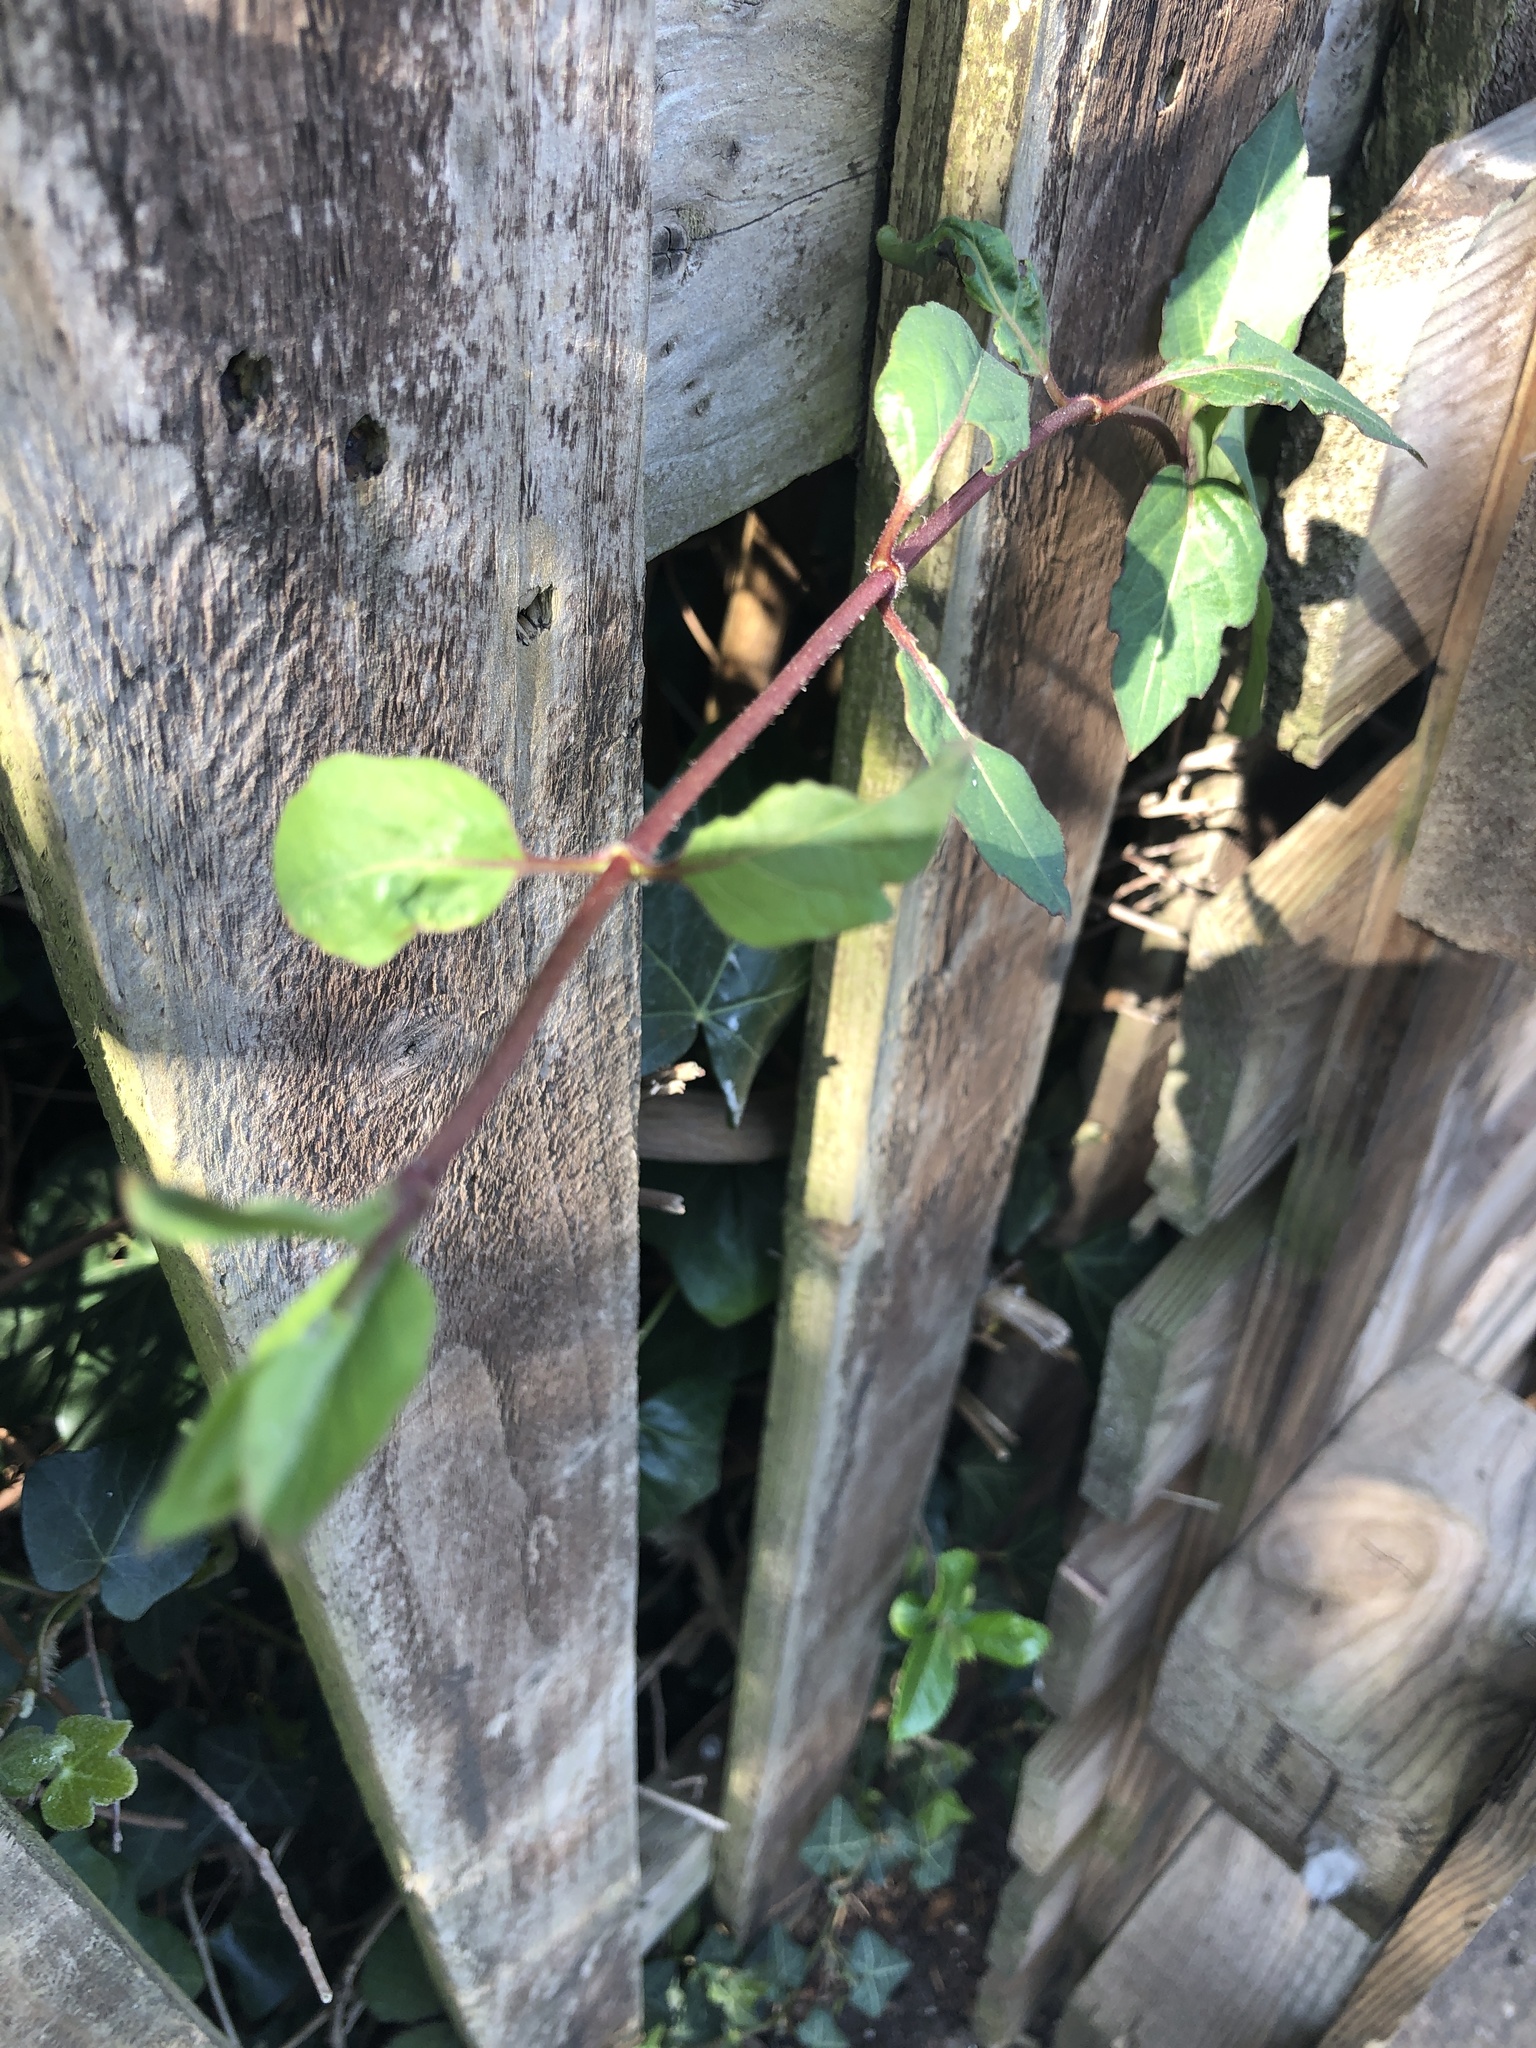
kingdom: Plantae
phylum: Tracheophyta
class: Magnoliopsida
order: Dipsacales
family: Caprifoliaceae
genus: Lonicera
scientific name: Lonicera japonica
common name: Japanese honeysuckle
